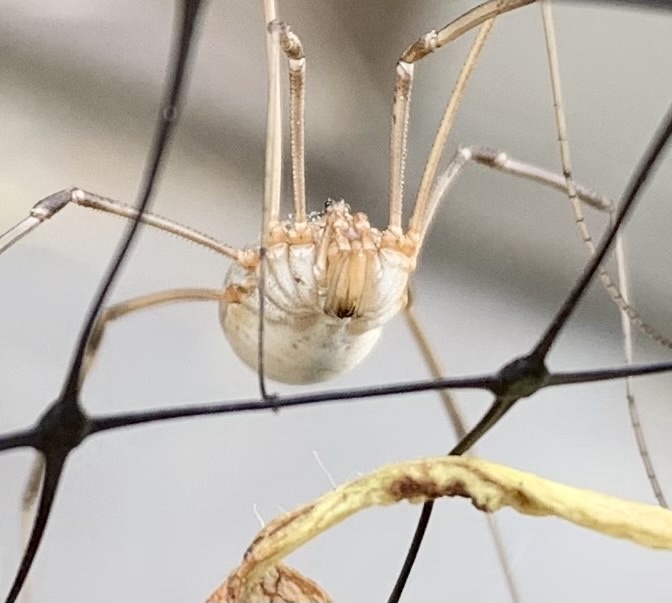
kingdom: Animalia
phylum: Arthropoda
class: Arachnida
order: Opiliones
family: Phalangiidae
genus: Phalangium
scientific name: Phalangium opilio
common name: Daddy longleg
